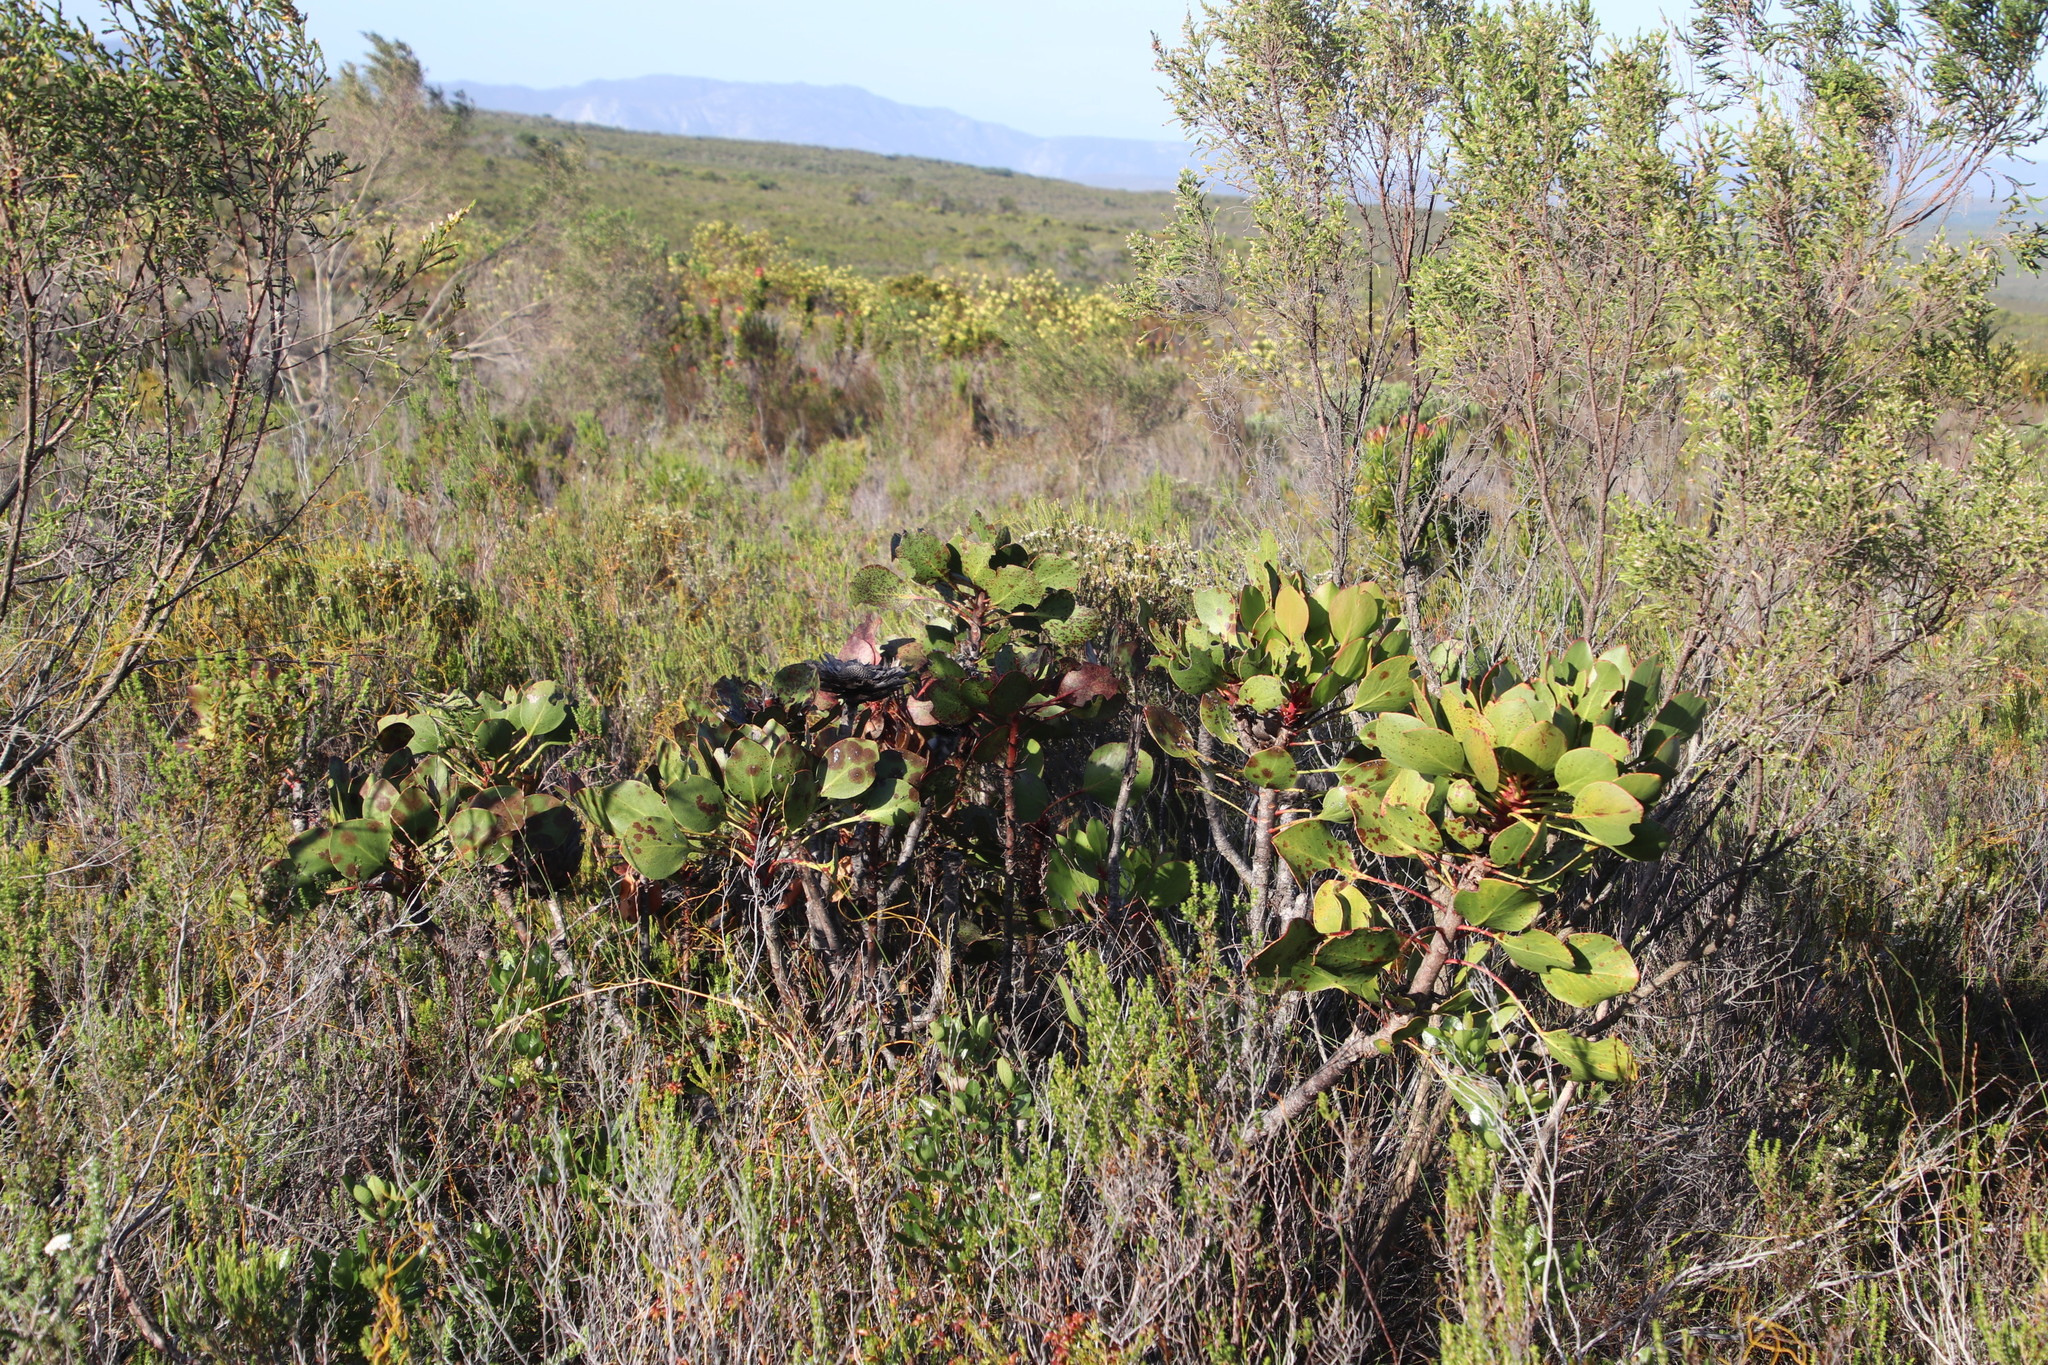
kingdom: Plantae
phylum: Tracheophyta
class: Magnoliopsida
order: Proteales
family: Proteaceae
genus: Protea
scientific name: Protea cynaroides
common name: King protea
